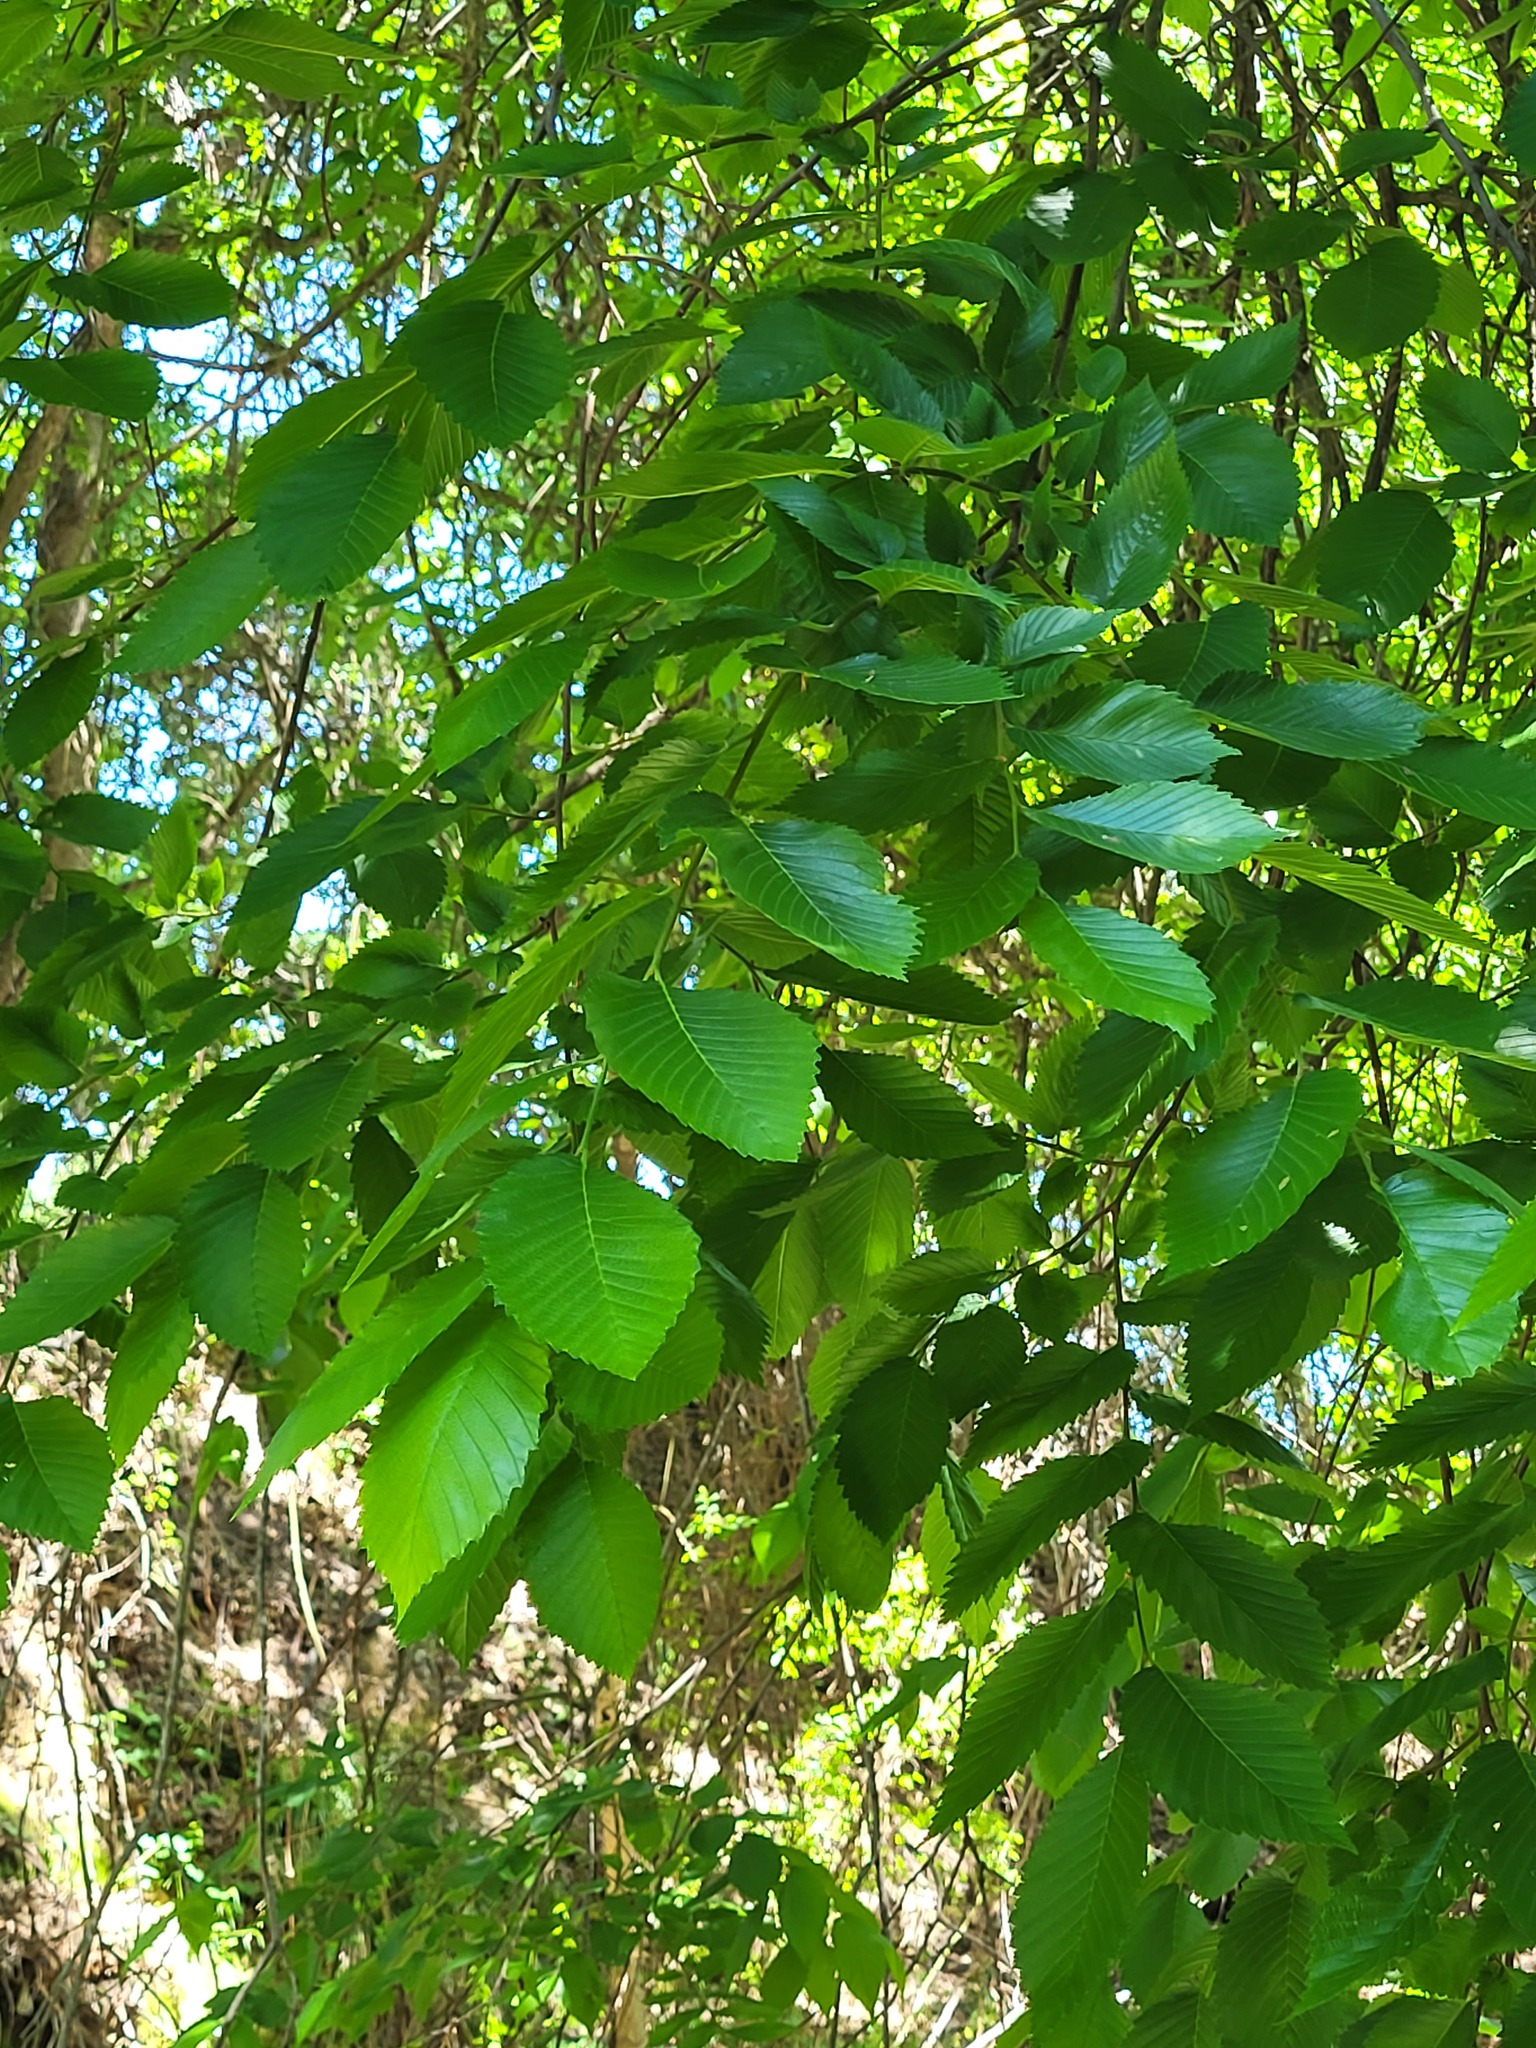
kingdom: Plantae
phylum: Tracheophyta
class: Magnoliopsida
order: Rosales
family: Ulmaceae
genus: Ulmus
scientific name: Ulmus americana
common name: American elm
